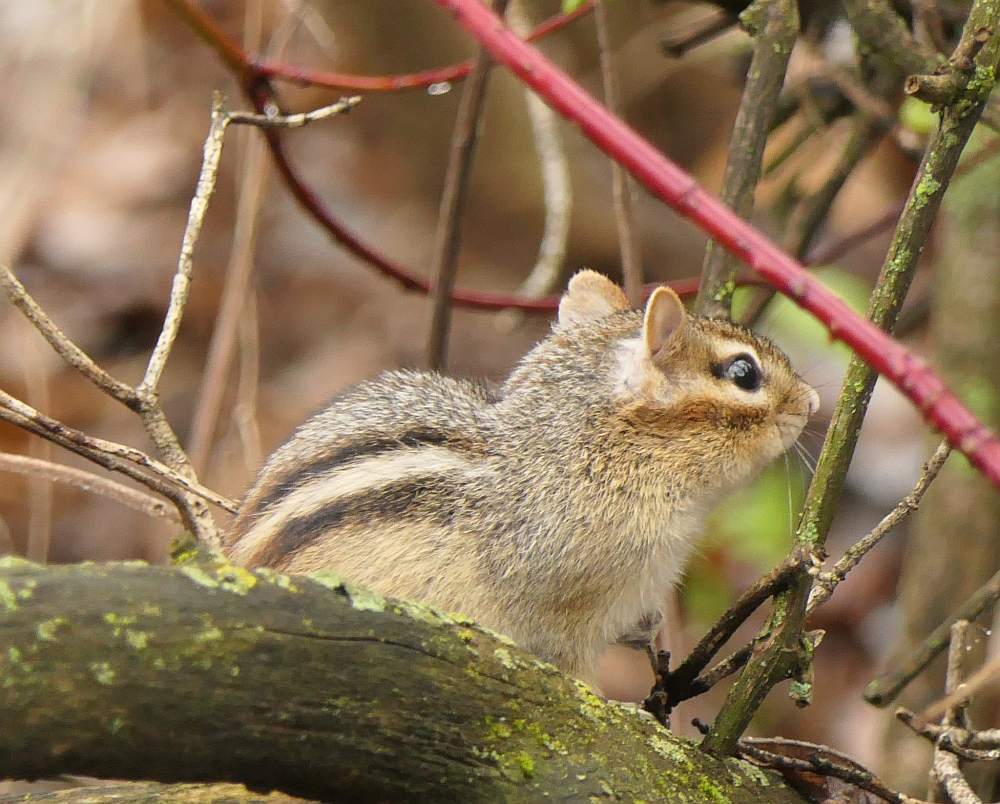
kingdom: Animalia
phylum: Chordata
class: Mammalia
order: Rodentia
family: Sciuridae
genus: Tamias
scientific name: Tamias striatus
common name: Eastern chipmunk
